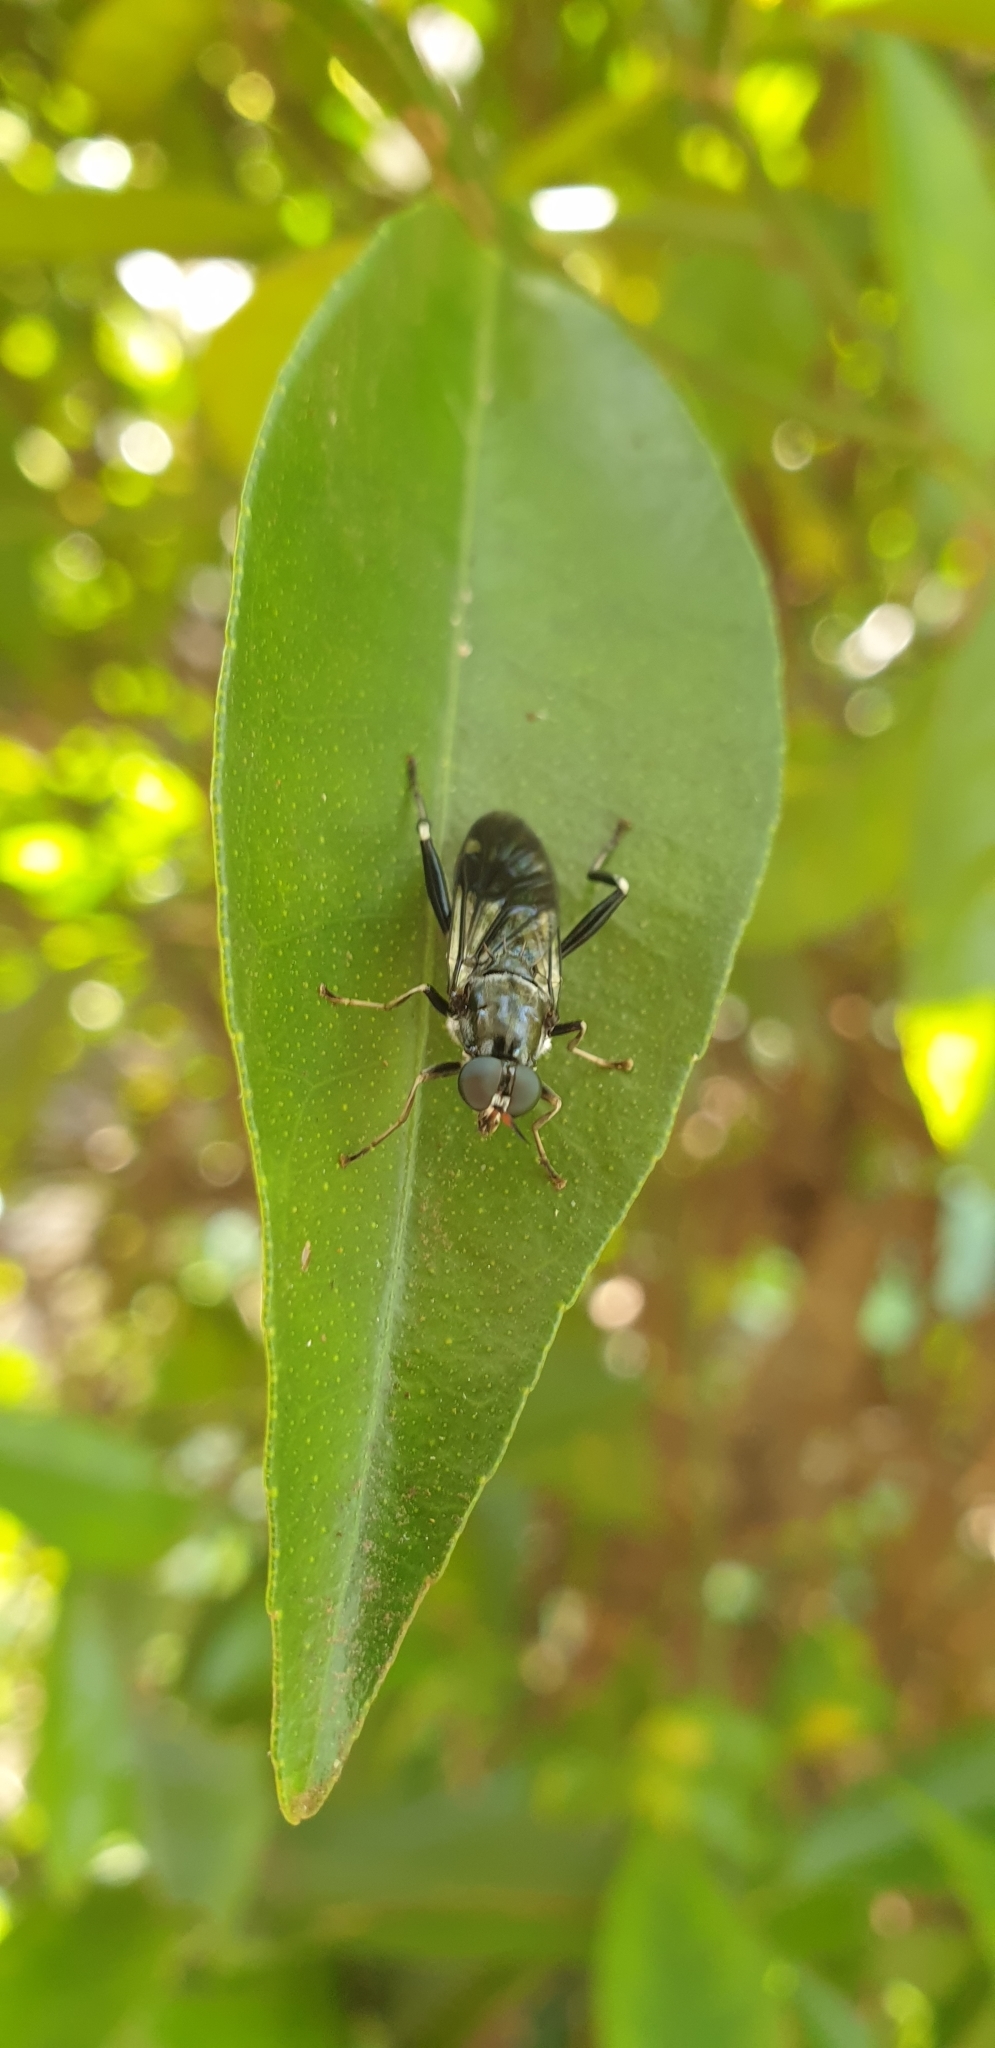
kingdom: Animalia
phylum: Arthropoda
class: Insecta
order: Diptera
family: Stratiomyidae
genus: Exaireta
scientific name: Exaireta spinigera
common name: Blue soldier fly
